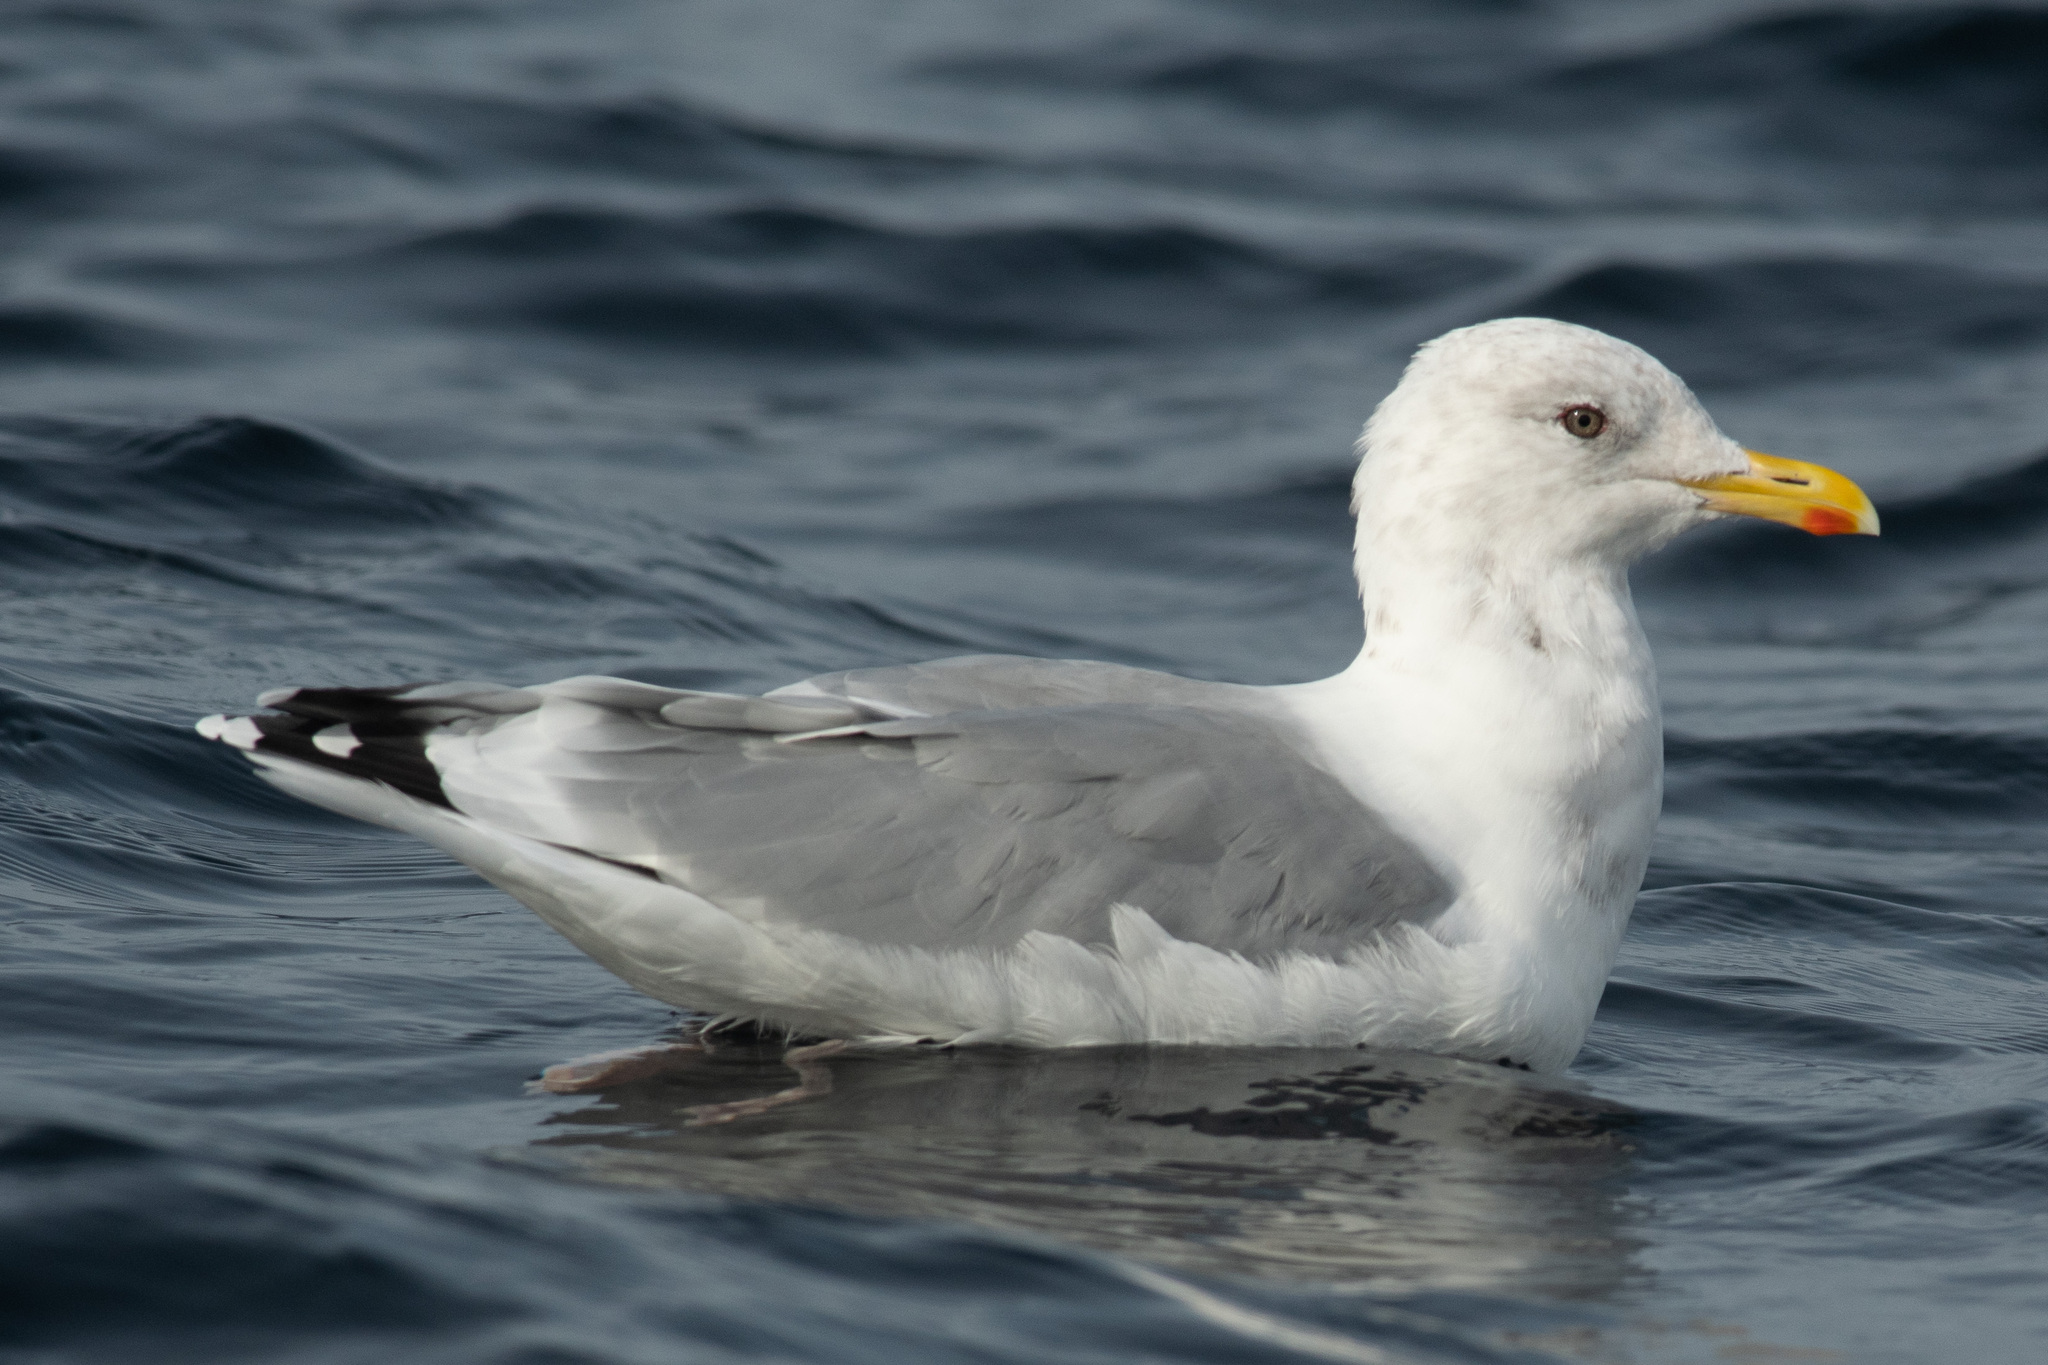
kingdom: Animalia
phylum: Chordata
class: Aves
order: Charadriiformes
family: Laridae
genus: Larus
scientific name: Larus glaucoides
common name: Iceland gull
